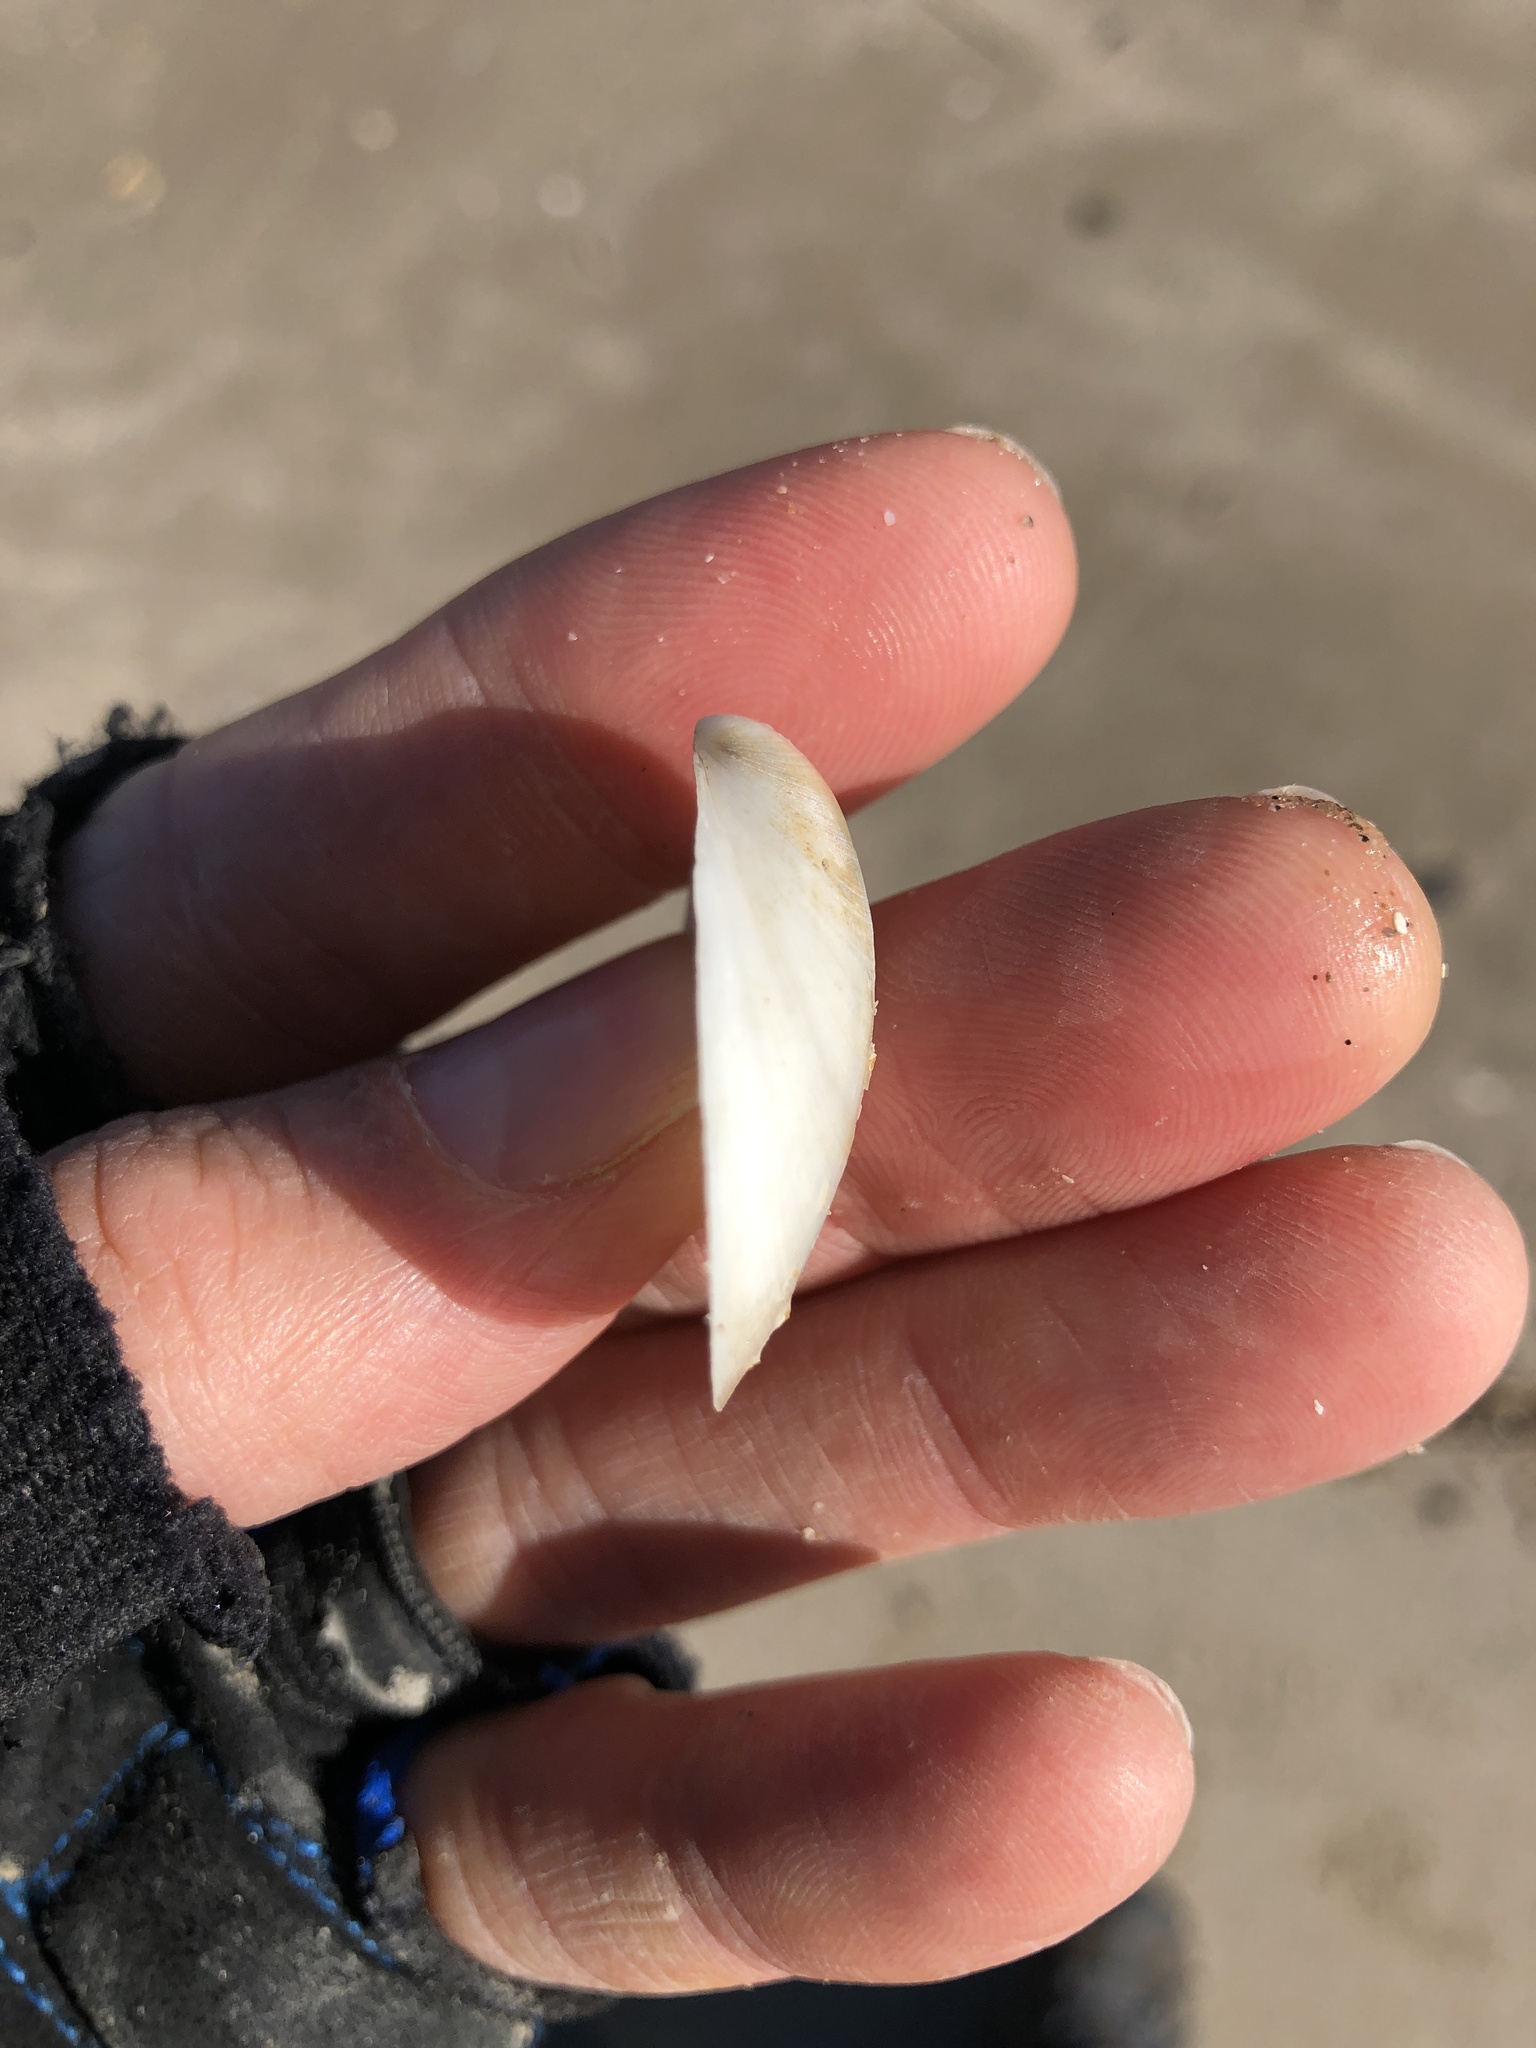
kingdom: Animalia
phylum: Mollusca
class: Bivalvia
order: Cardiida
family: Tellinidae
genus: Austromacoma
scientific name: Austromacoma constricta
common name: Constricted macoma
